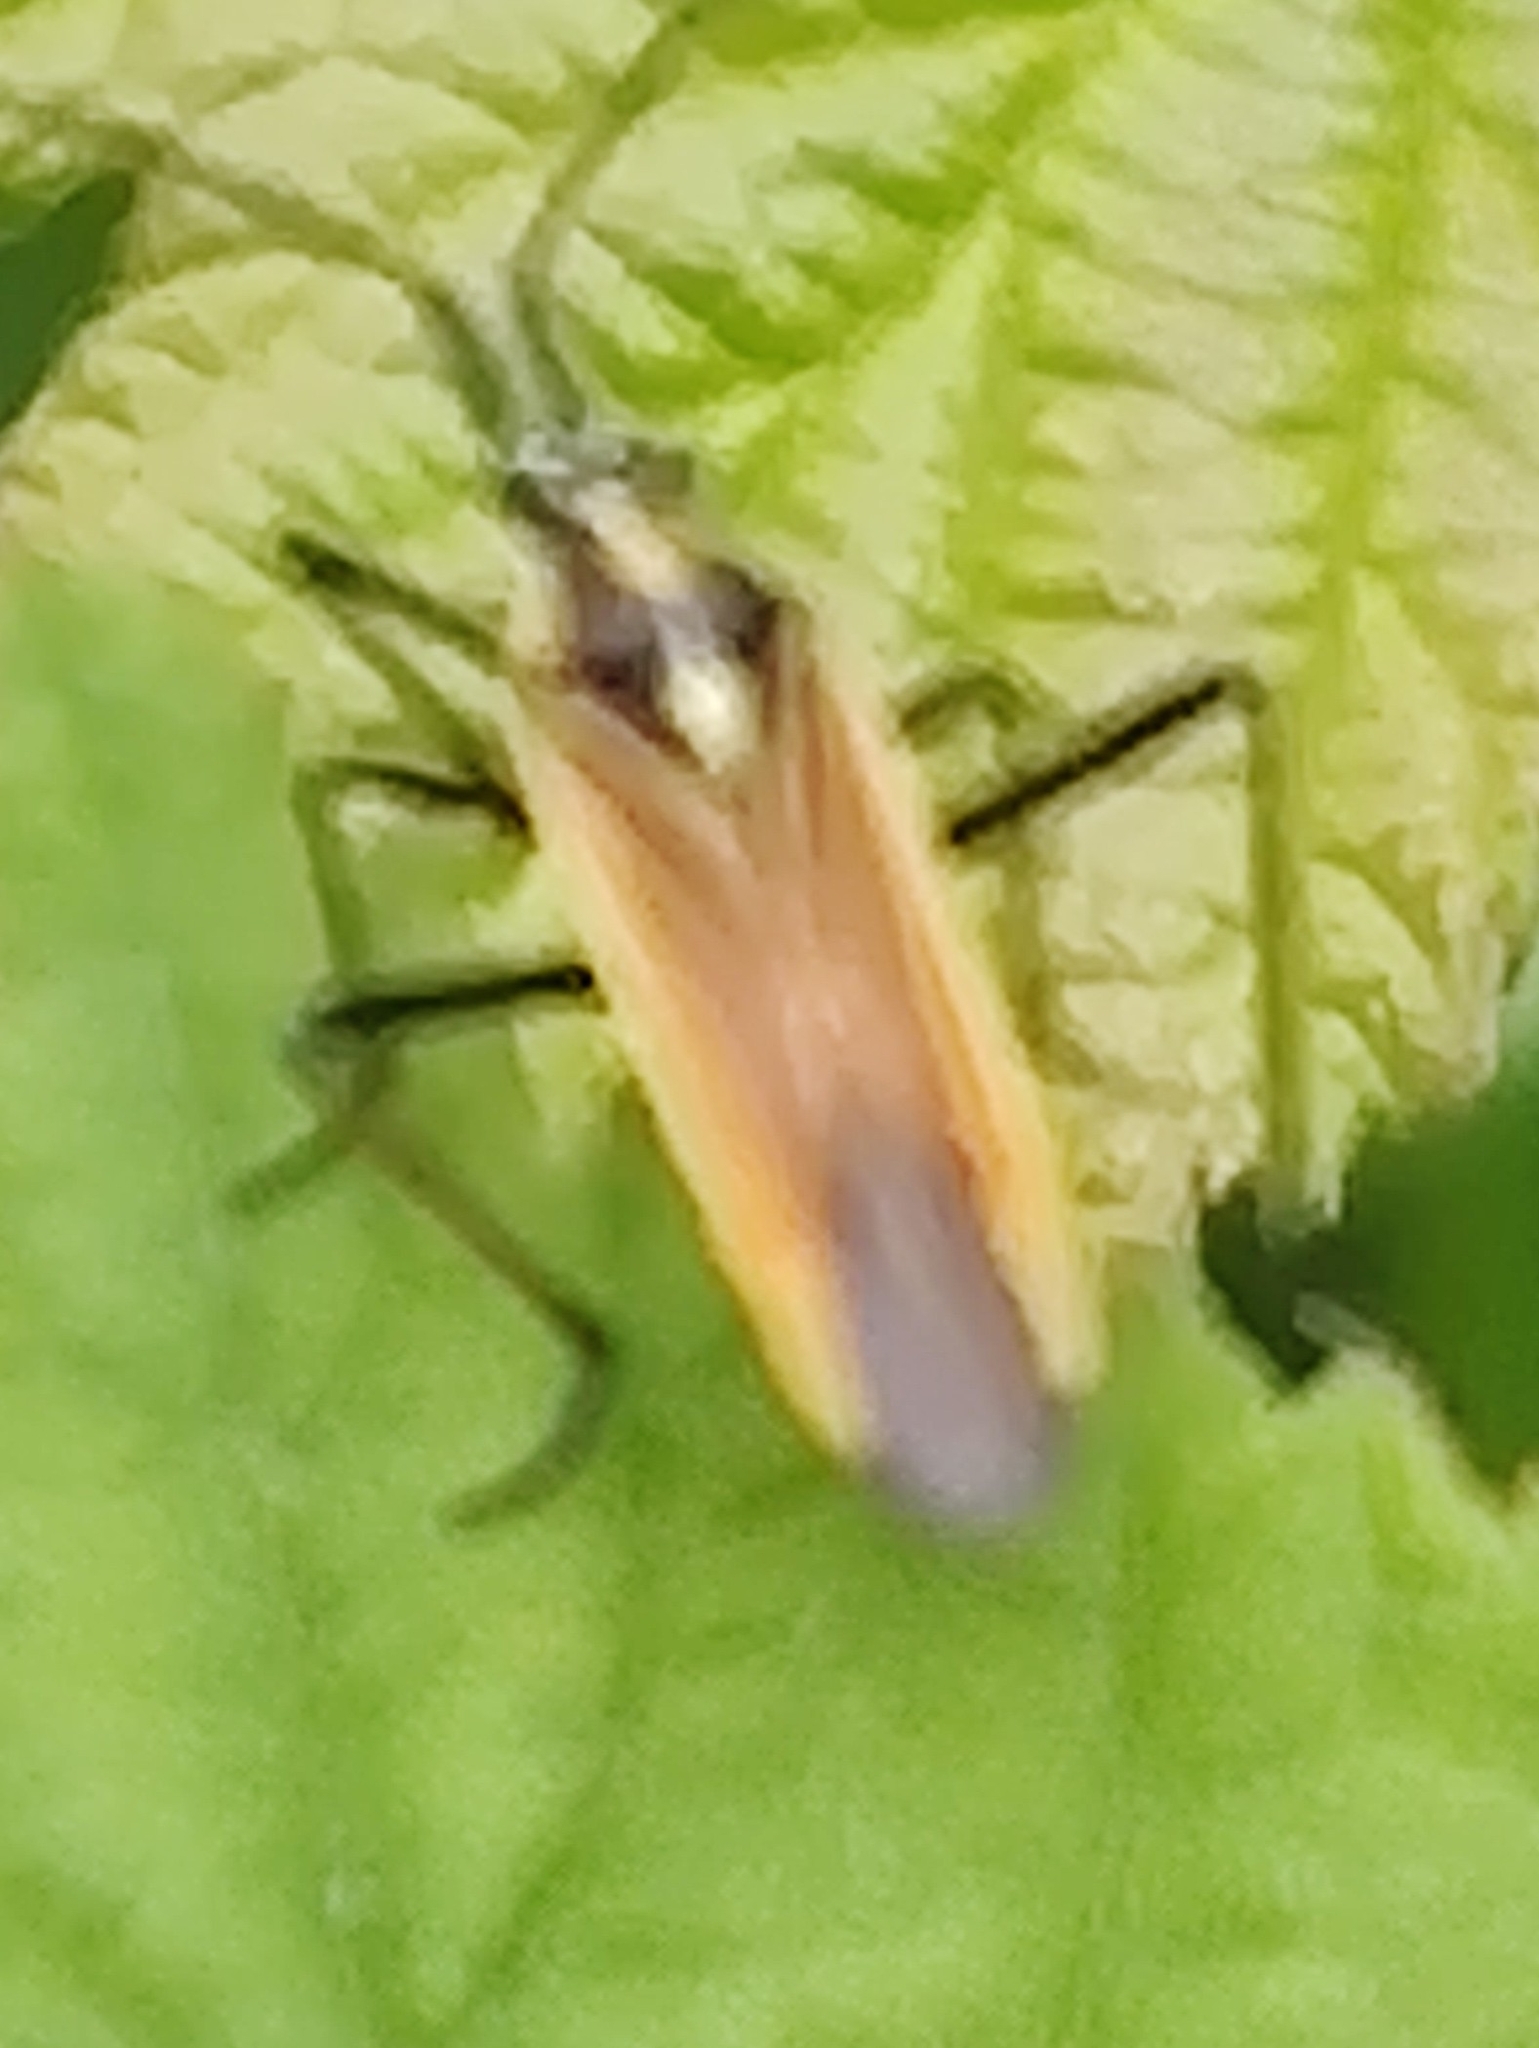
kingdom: Animalia
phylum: Arthropoda
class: Insecta
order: Hemiptera
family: Miridae
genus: Leptopterna
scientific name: Leptopterna dolabrata
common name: Meadow plant bug
